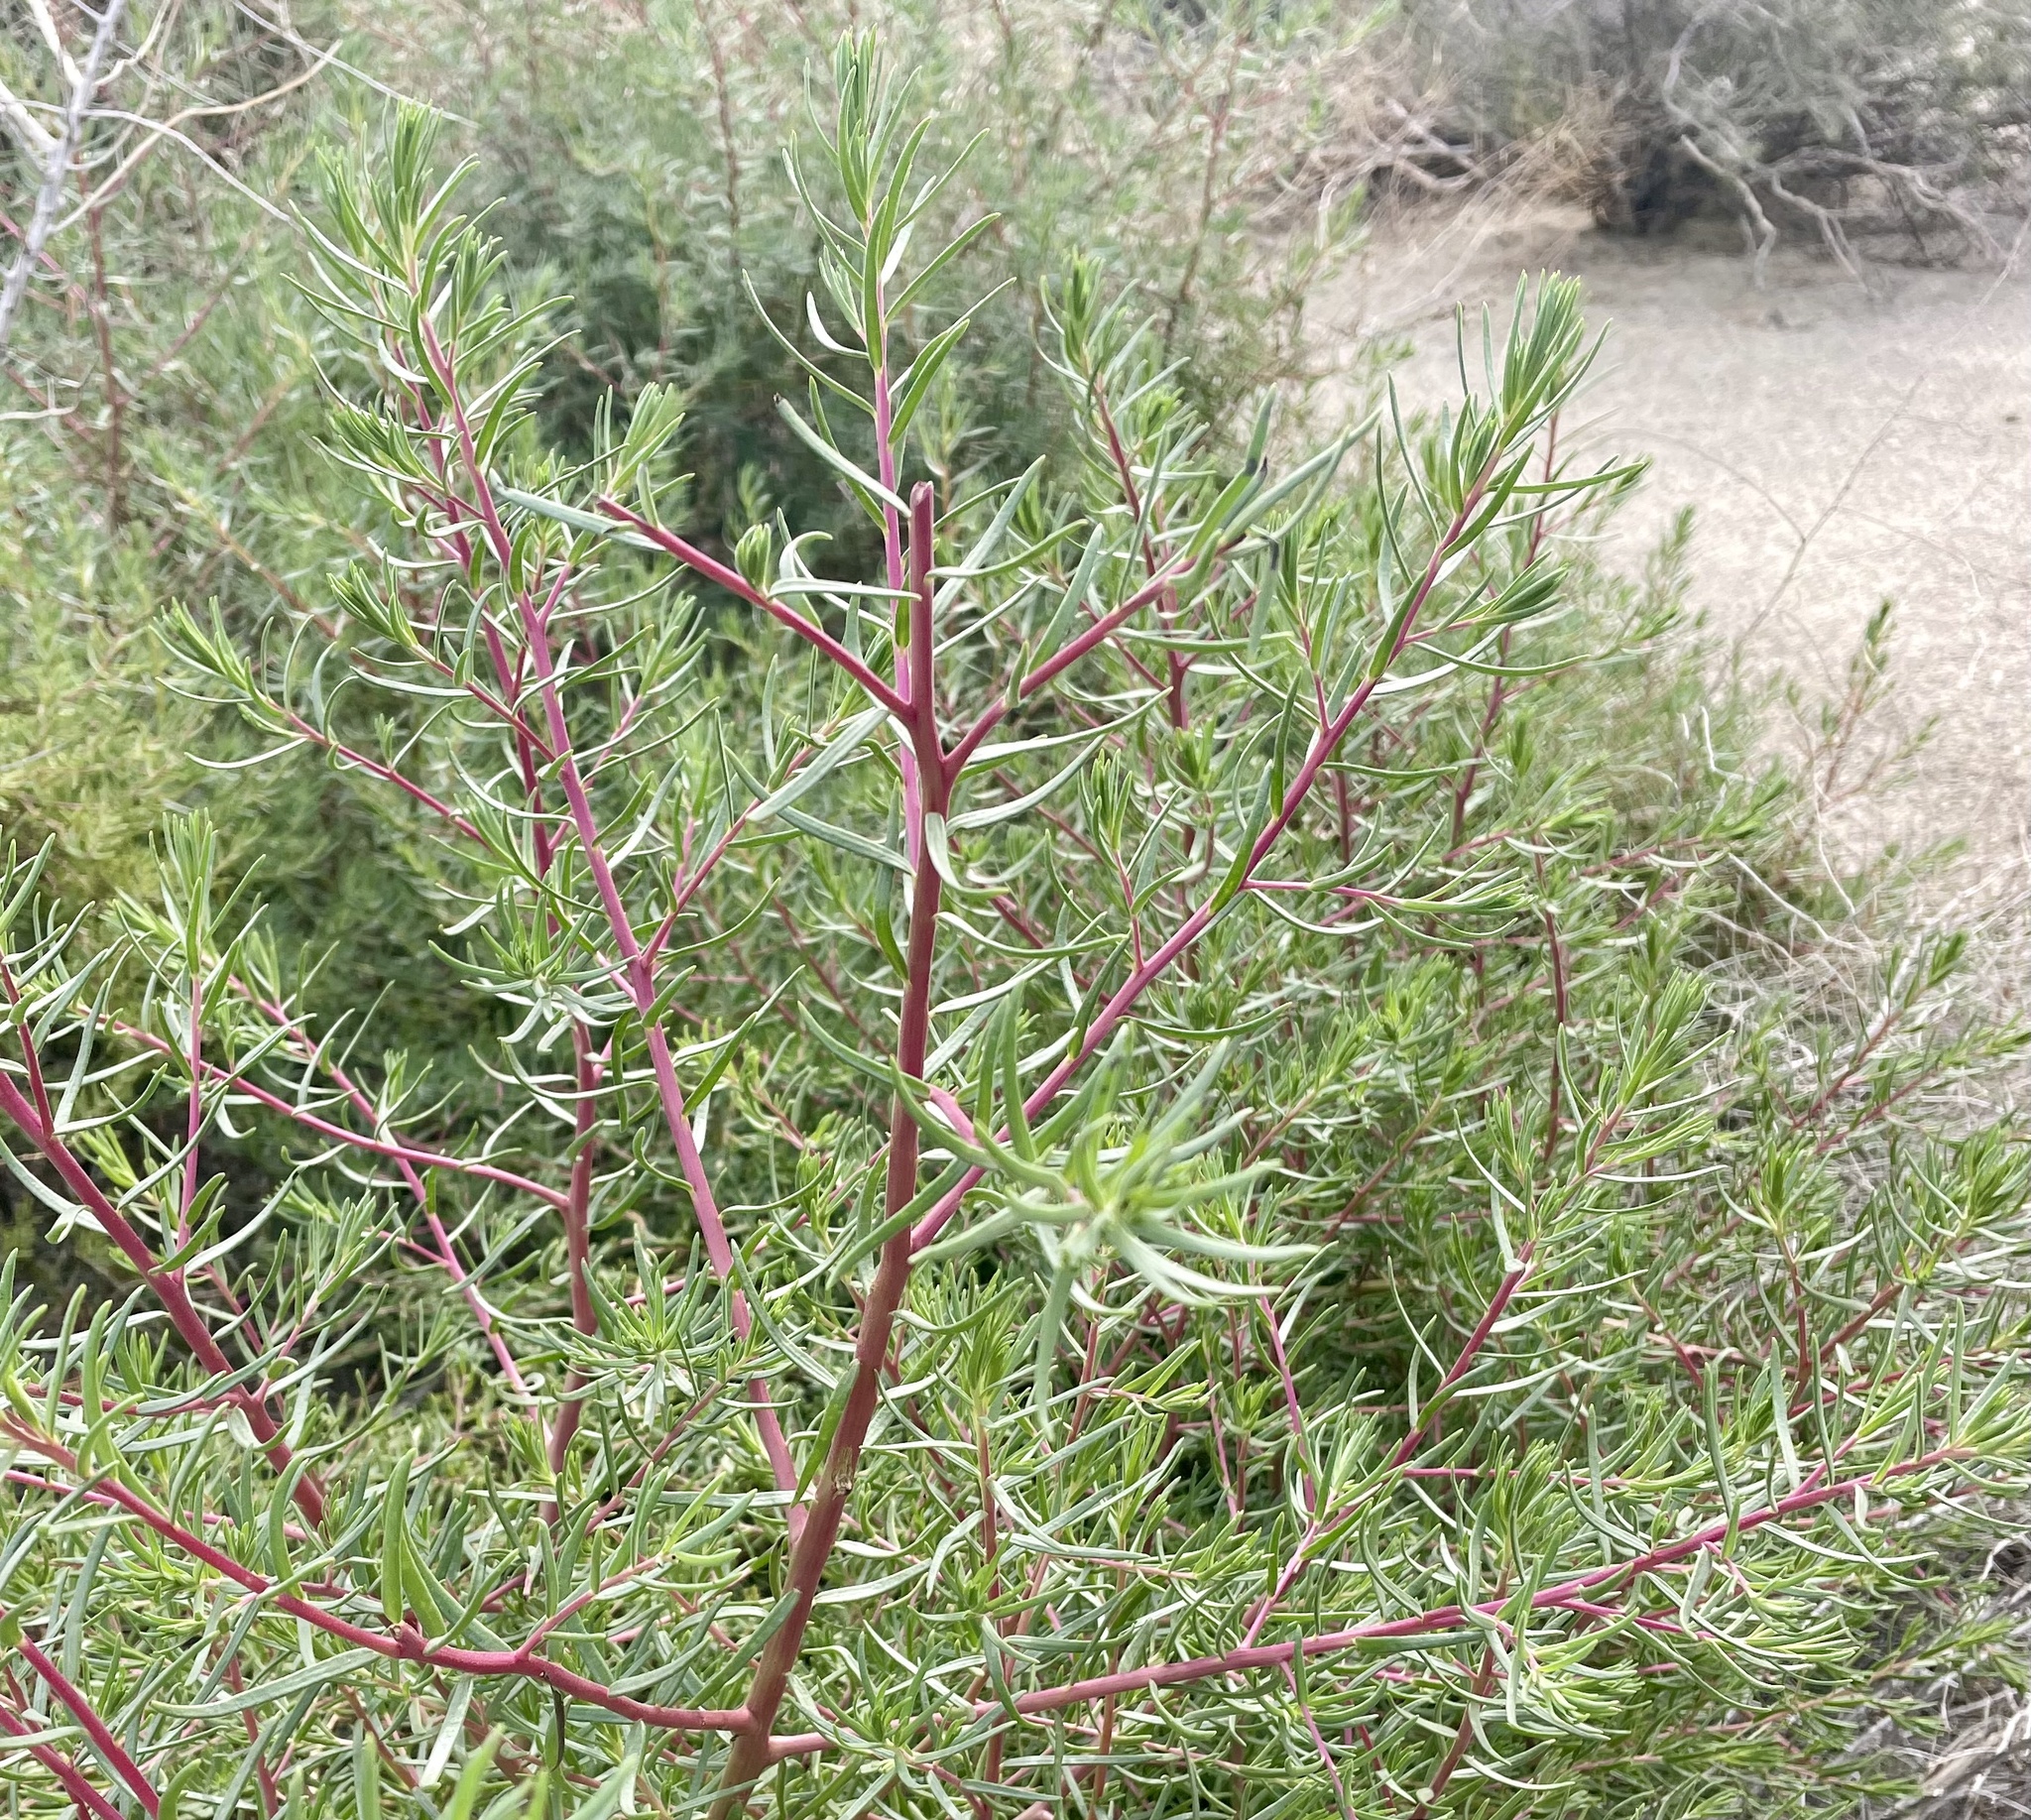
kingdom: Plantae
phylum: Tracheophyta
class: Magnoliopsida
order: Caryophyllales
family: Amaranthaceae
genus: Suaeda
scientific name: Suaeda nigra
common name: Bush seepweed
